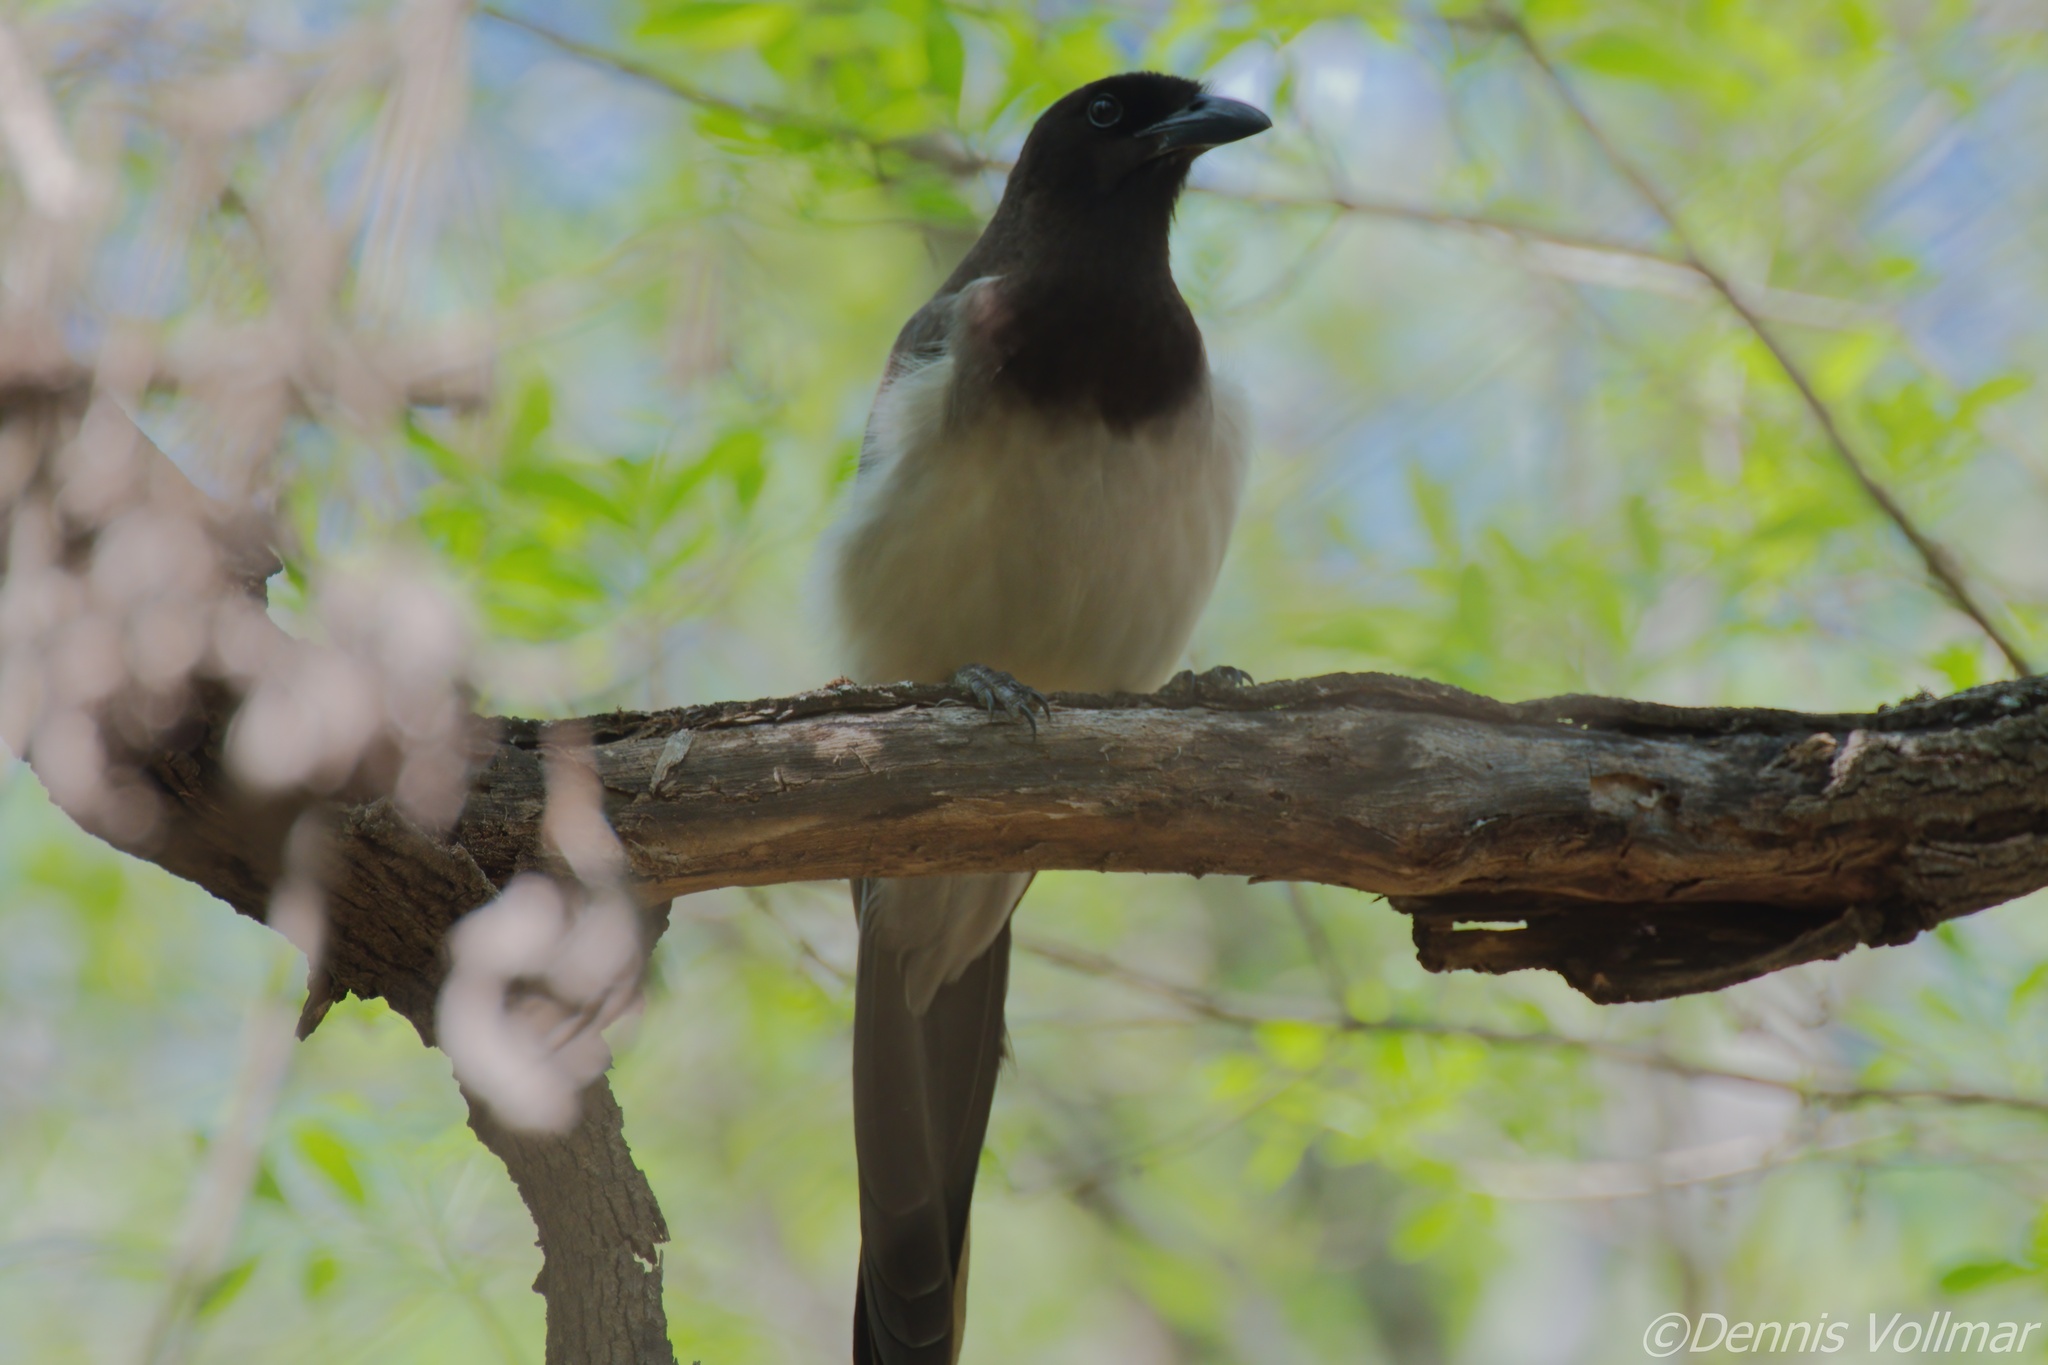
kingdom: Animalia
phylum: Chordata
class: Aves
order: Passeriformes
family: Corvidae
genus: Psilorhinus
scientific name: Psilorhinus morio
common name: Brown jay
